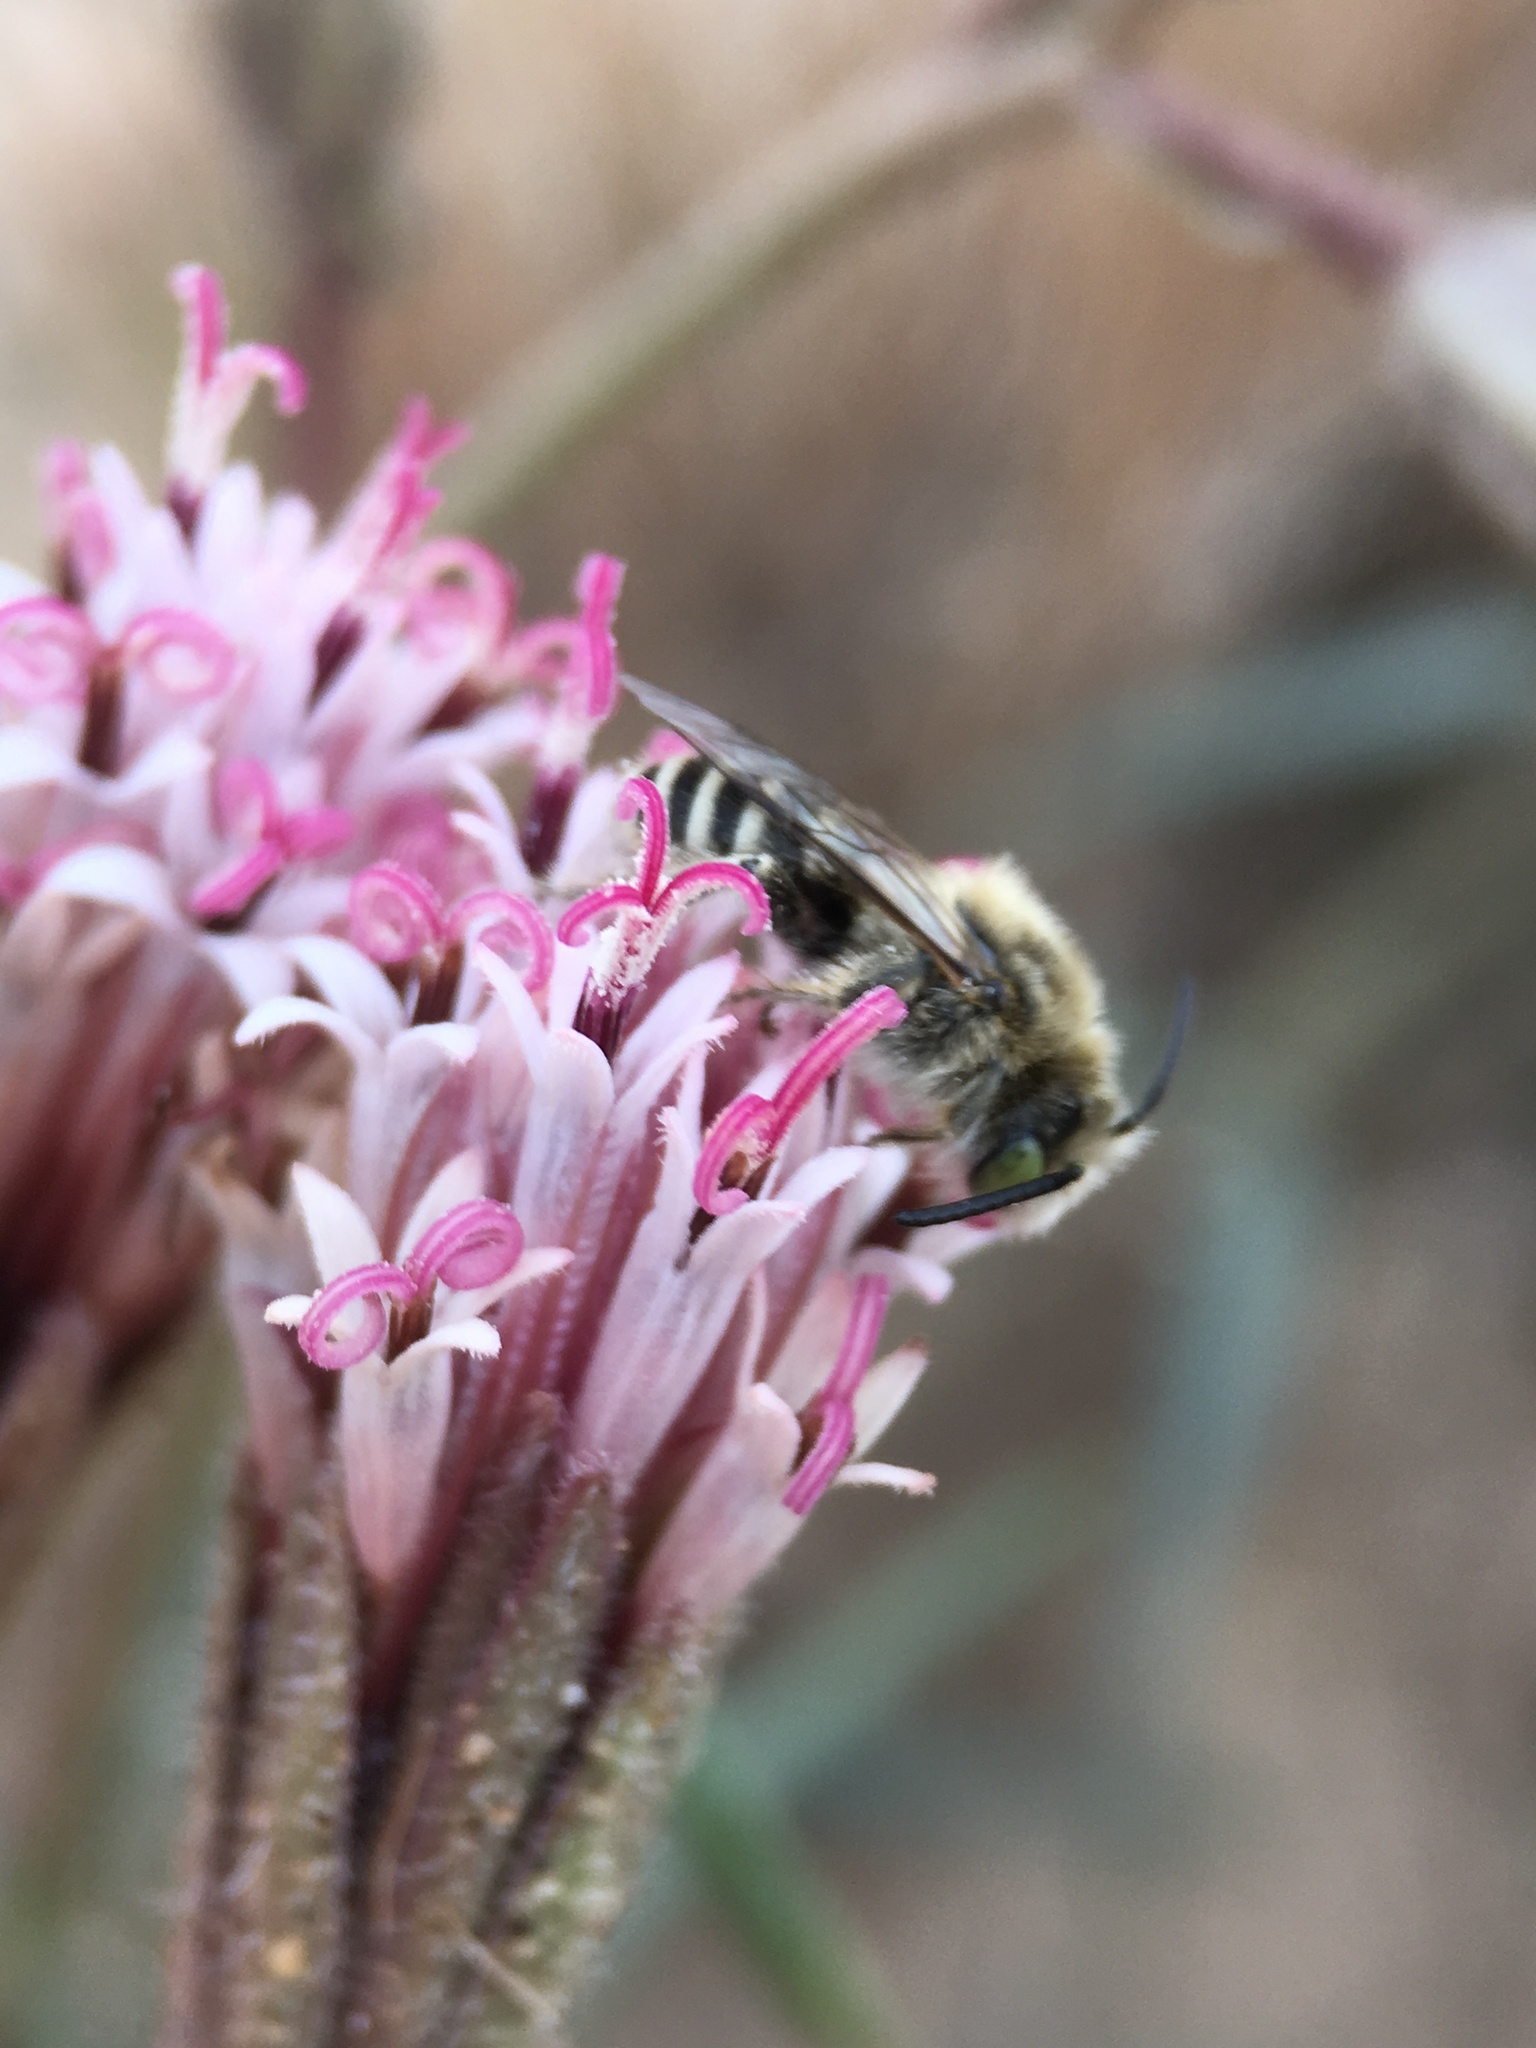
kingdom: Plantae
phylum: Tracheophyta
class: Magnoliopsida
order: Asterales
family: Asteraceae
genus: Palafoxia
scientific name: Palafoxia arida
